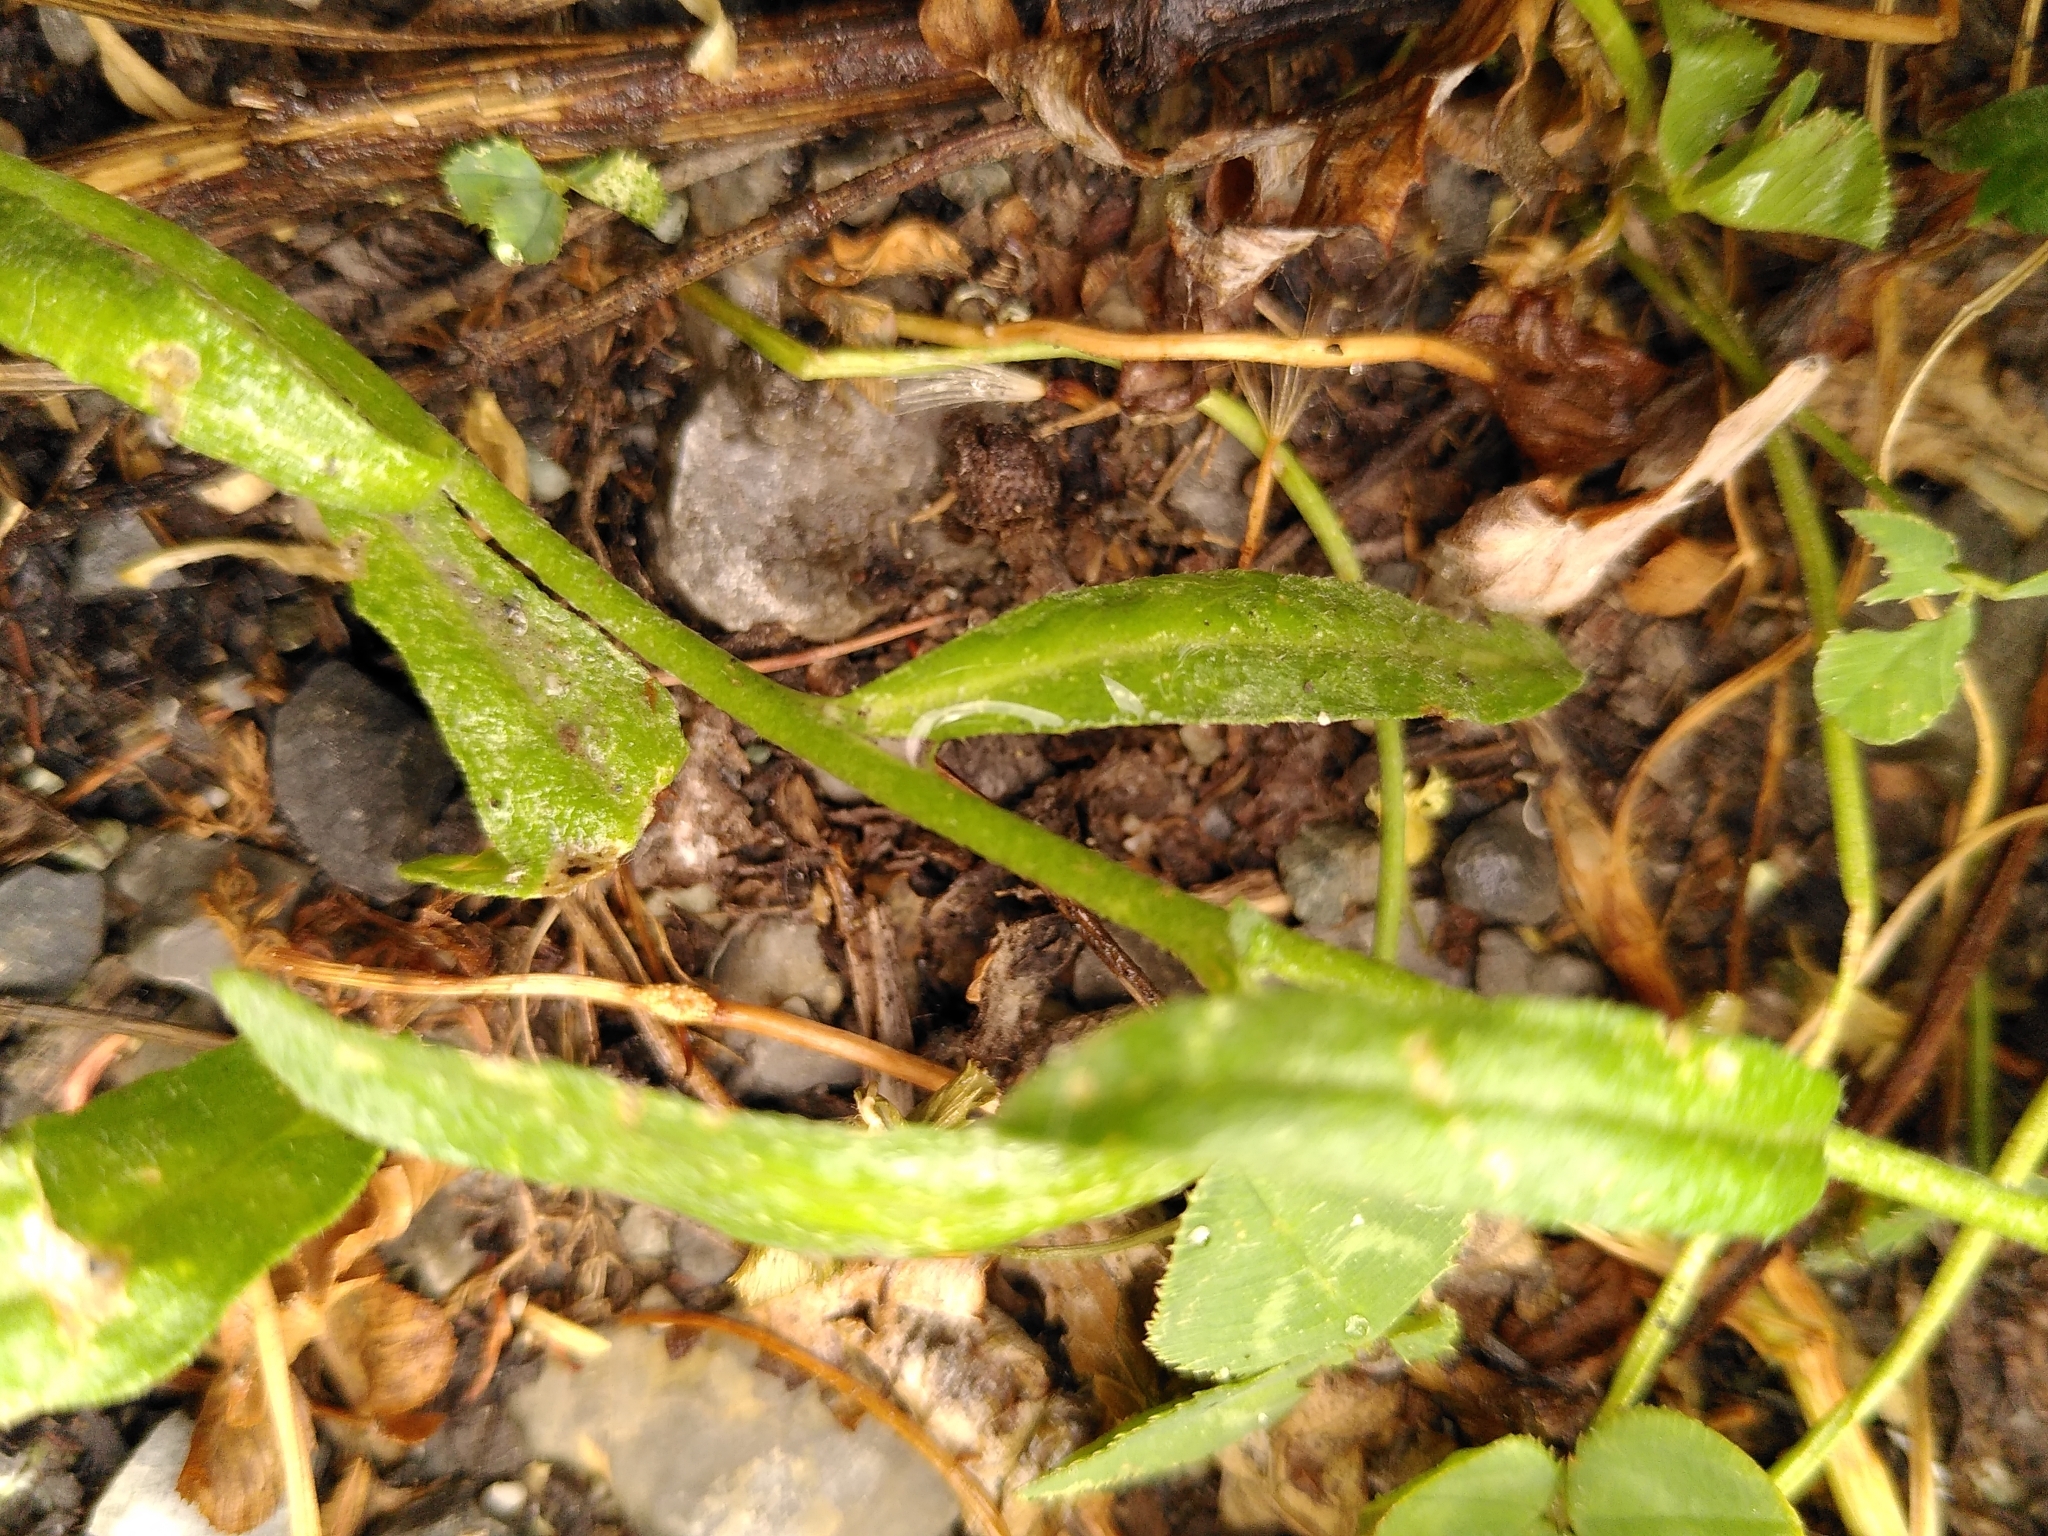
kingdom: Plantae
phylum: Tracheophyta
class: Magnoliopsida
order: Brassicales
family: Brassicaceae
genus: Berteroa
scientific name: Berteroa incana
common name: Hoary alison
